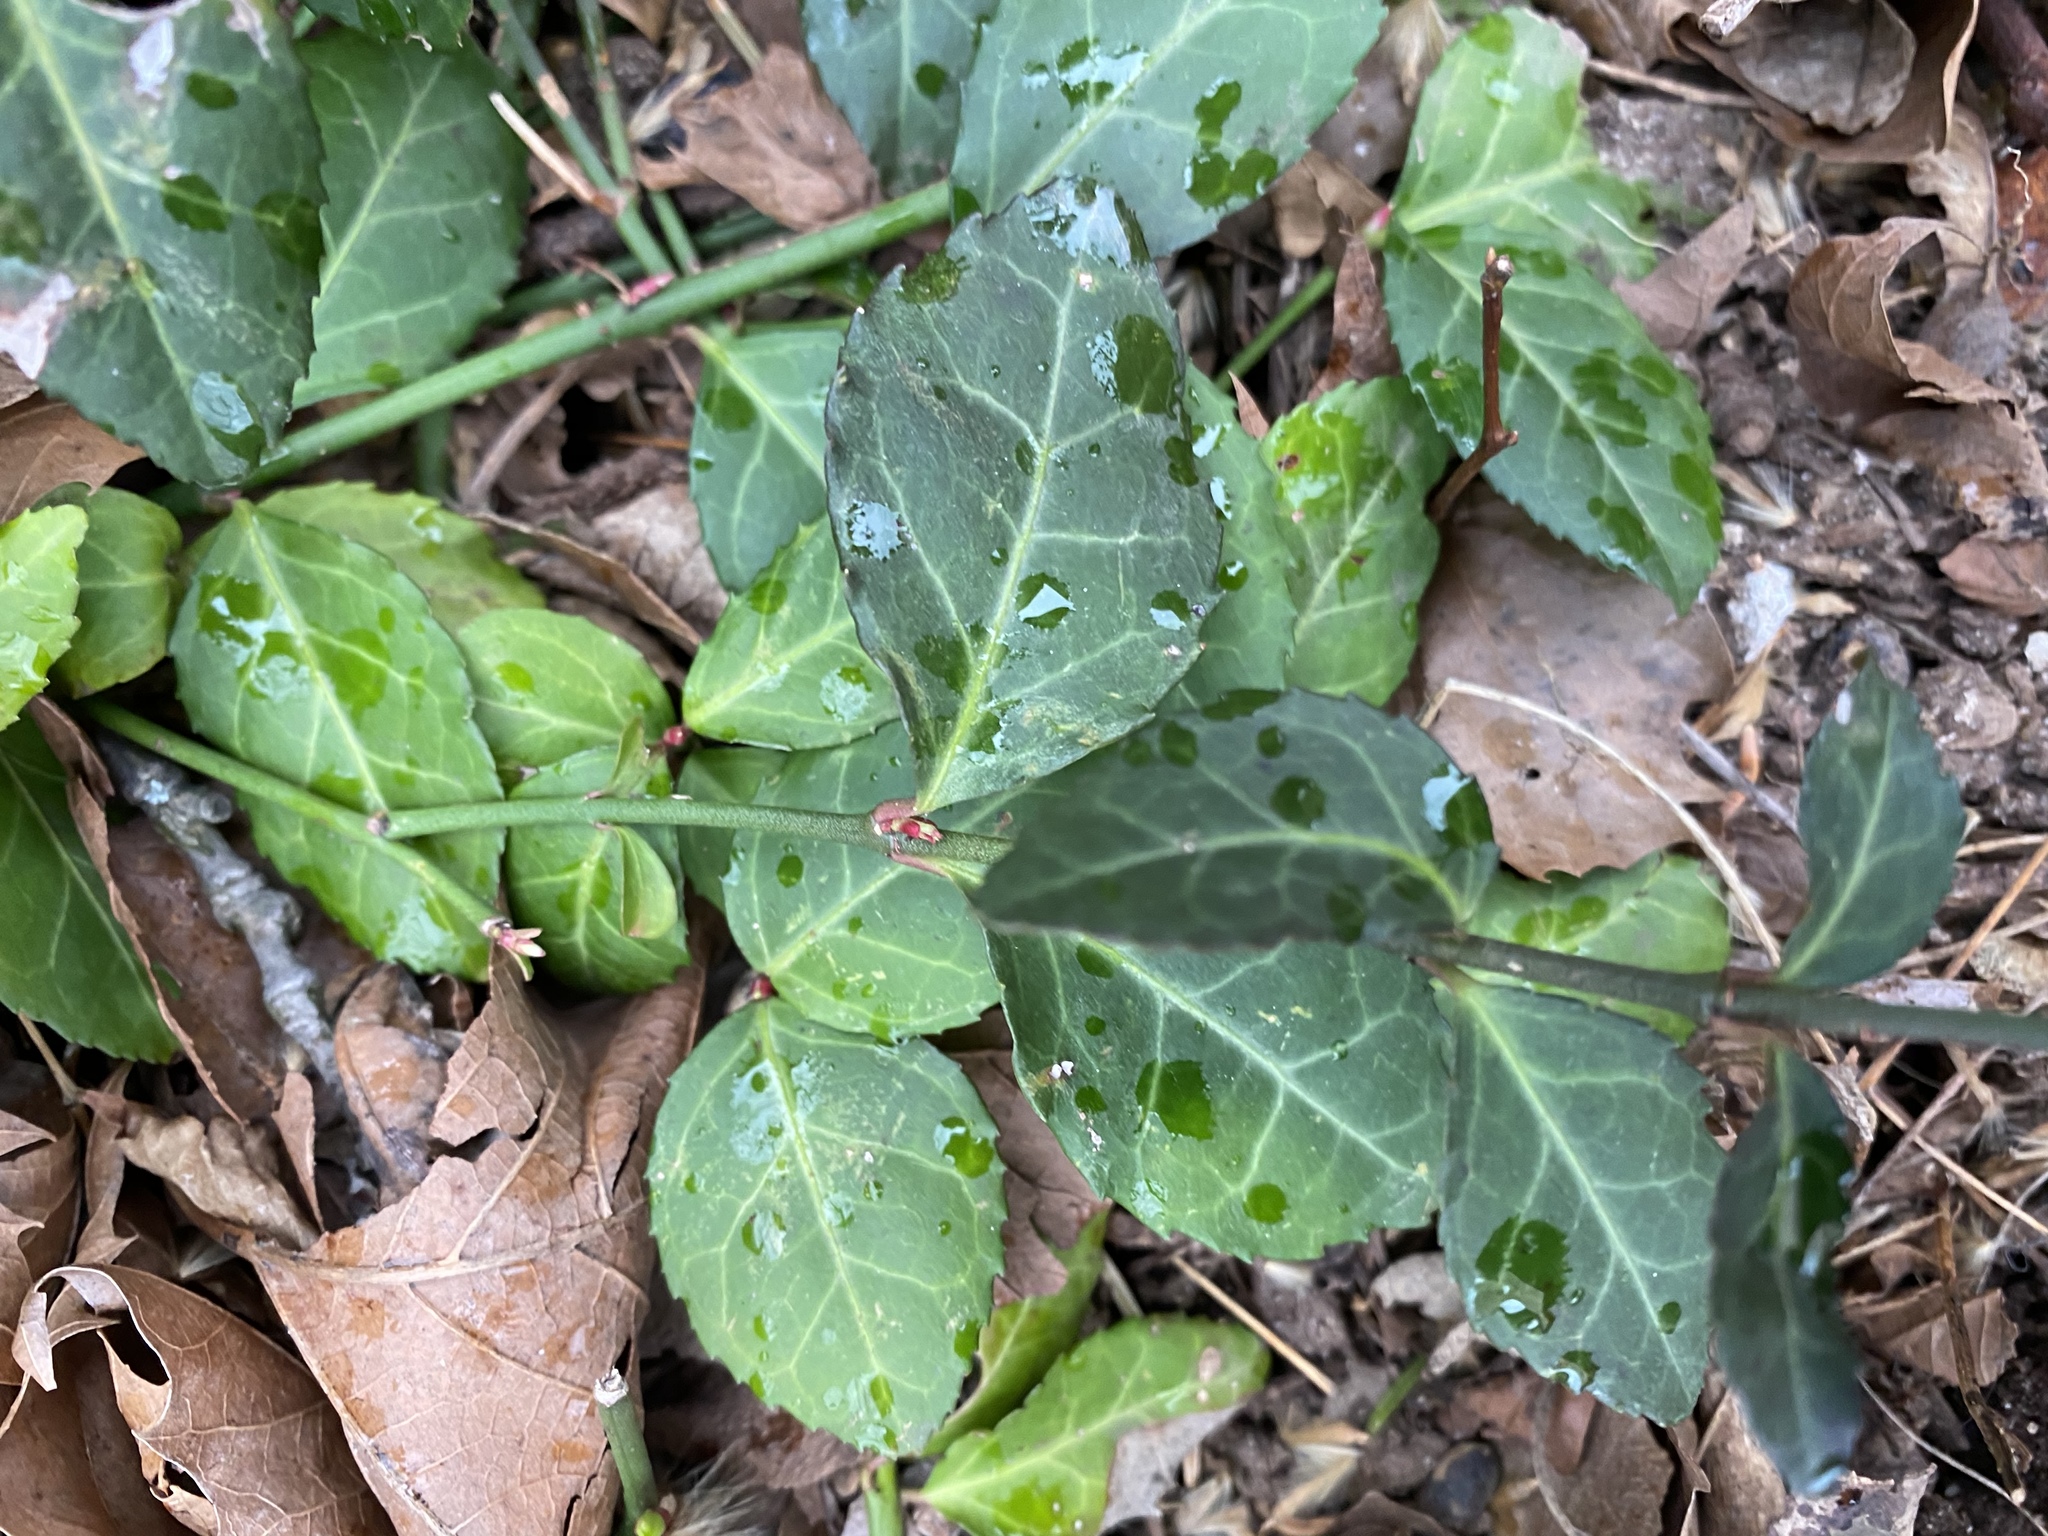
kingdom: Plantae
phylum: Tracheophyta
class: Magnoliopsida
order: Celastrales
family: Celastraceae
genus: Euonymus
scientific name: Euonymus fortunei
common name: Climbing euonymus
